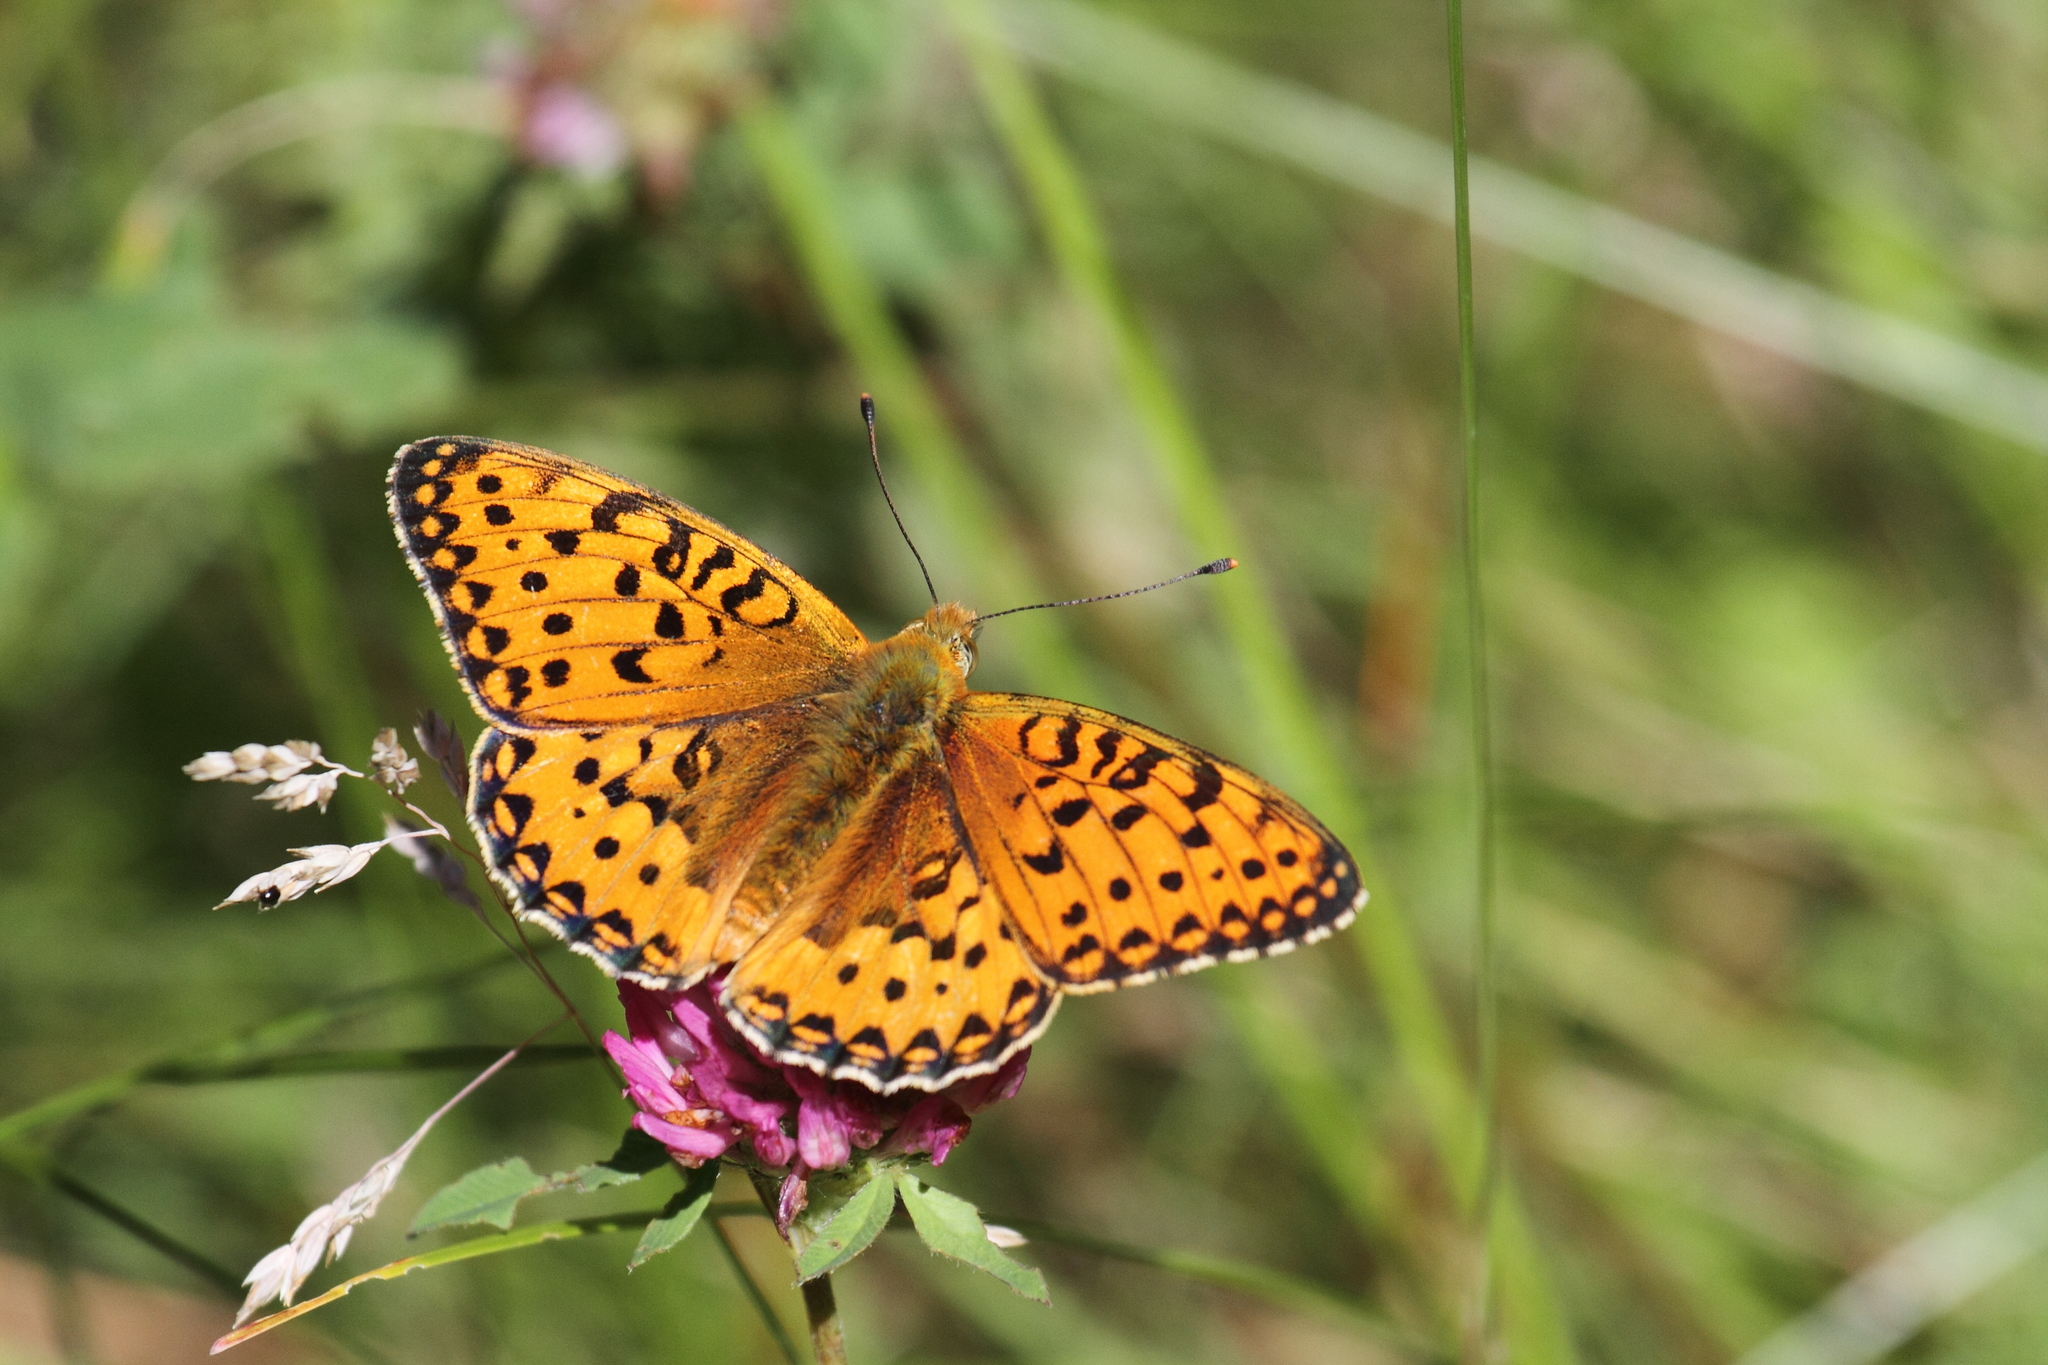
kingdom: Animalia
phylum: Arthropoda
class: Insecta
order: Lepidoptera
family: Nymphalidae
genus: Speyeria
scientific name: Speyeria aglaja
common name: Dark green fritillary
